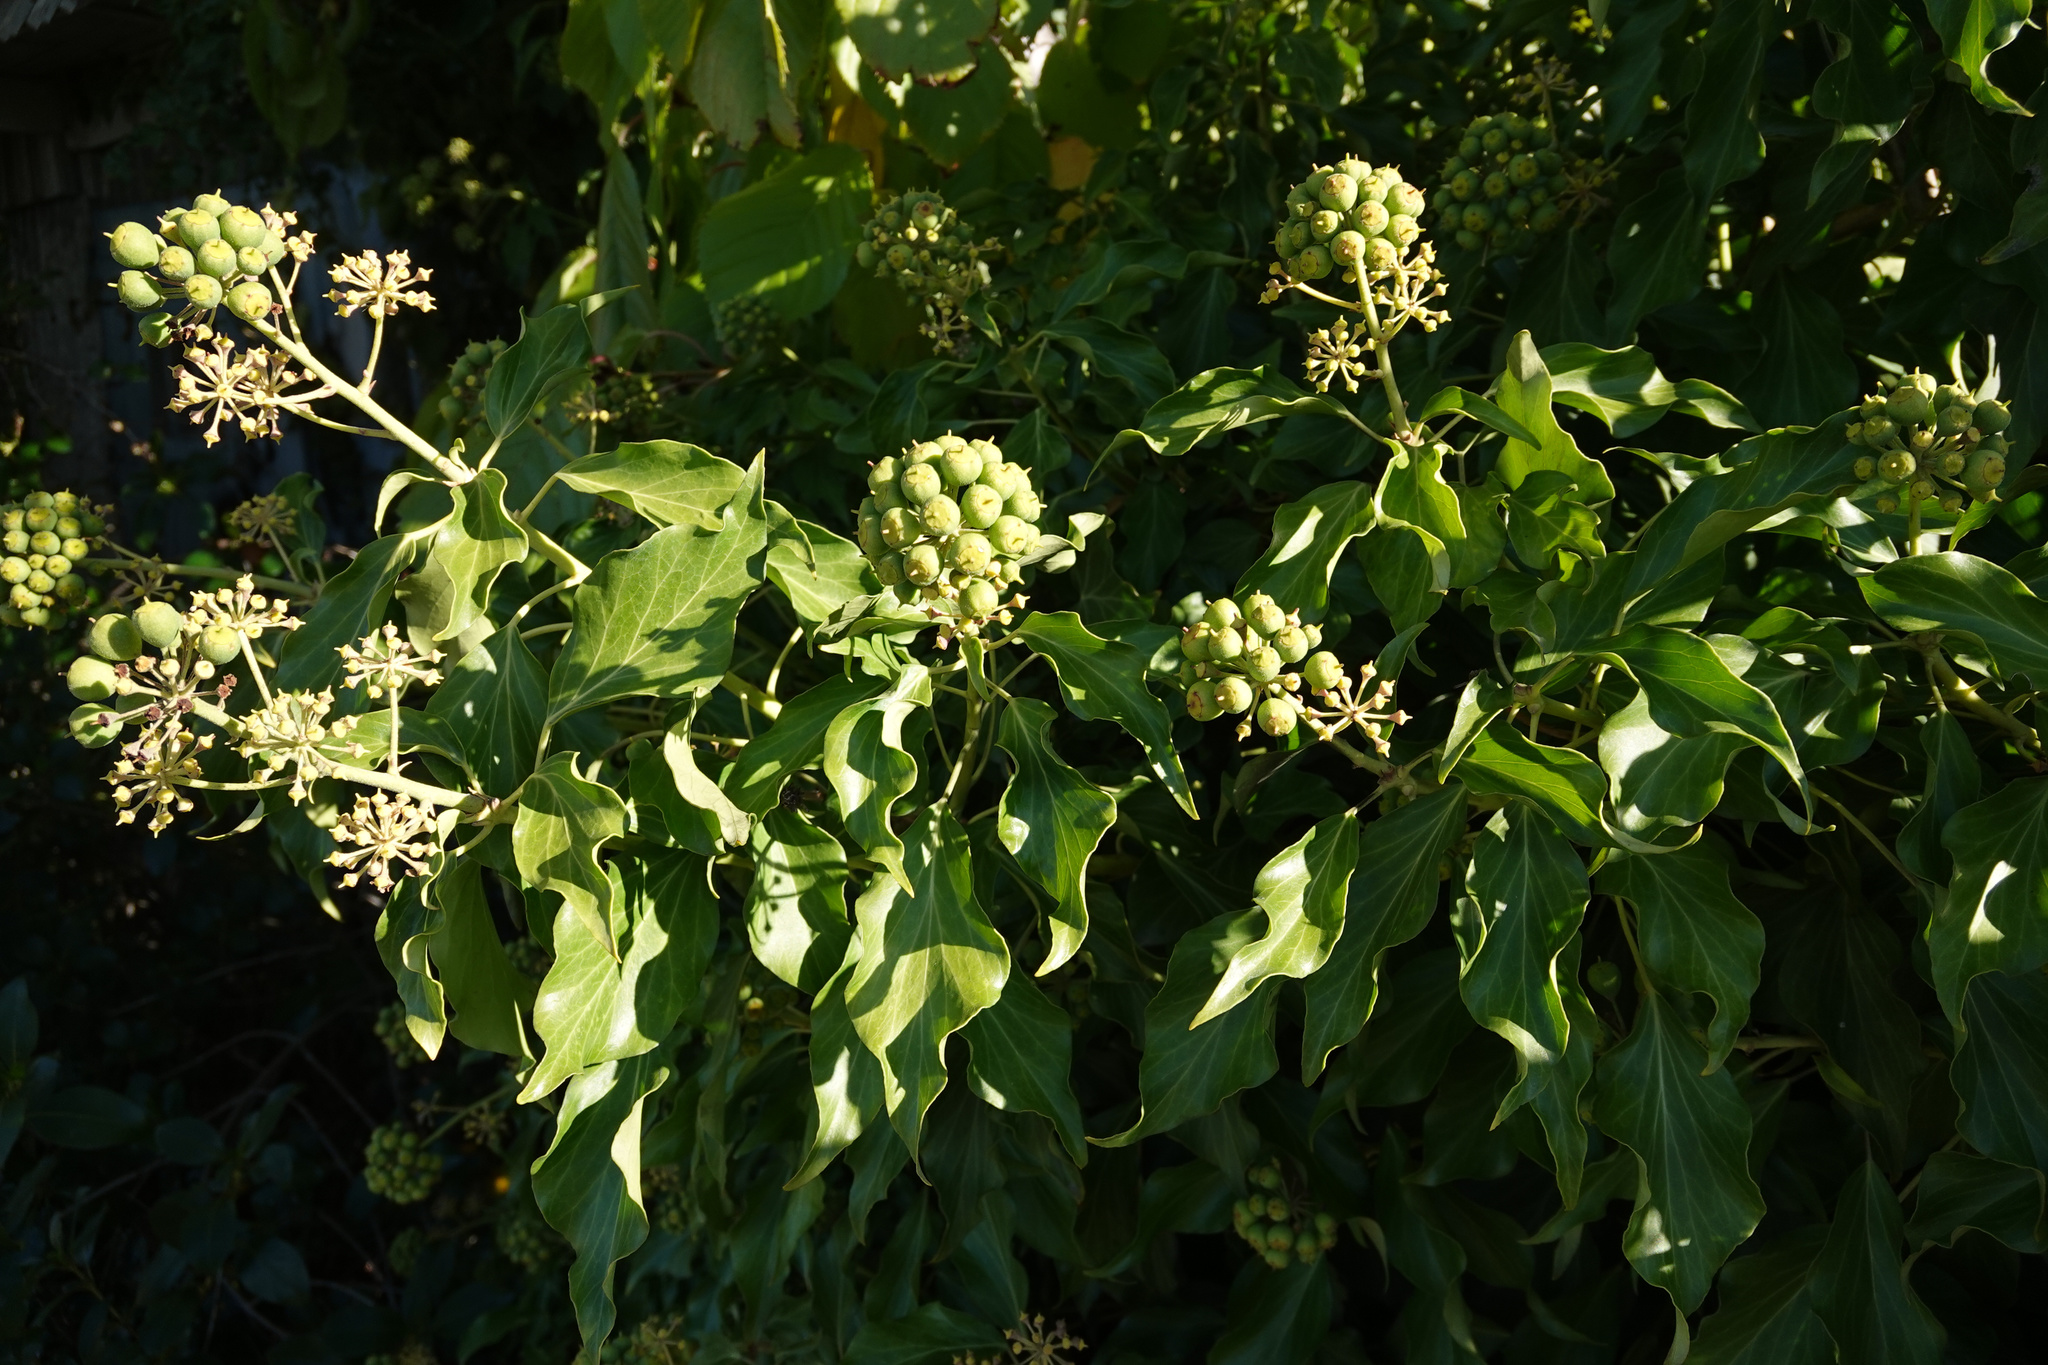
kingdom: Plantae
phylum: Tracheophyta
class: Magnoliopsida
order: Apiales
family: Araliaceae
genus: Hedera
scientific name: Hedera helix
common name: Ivy
